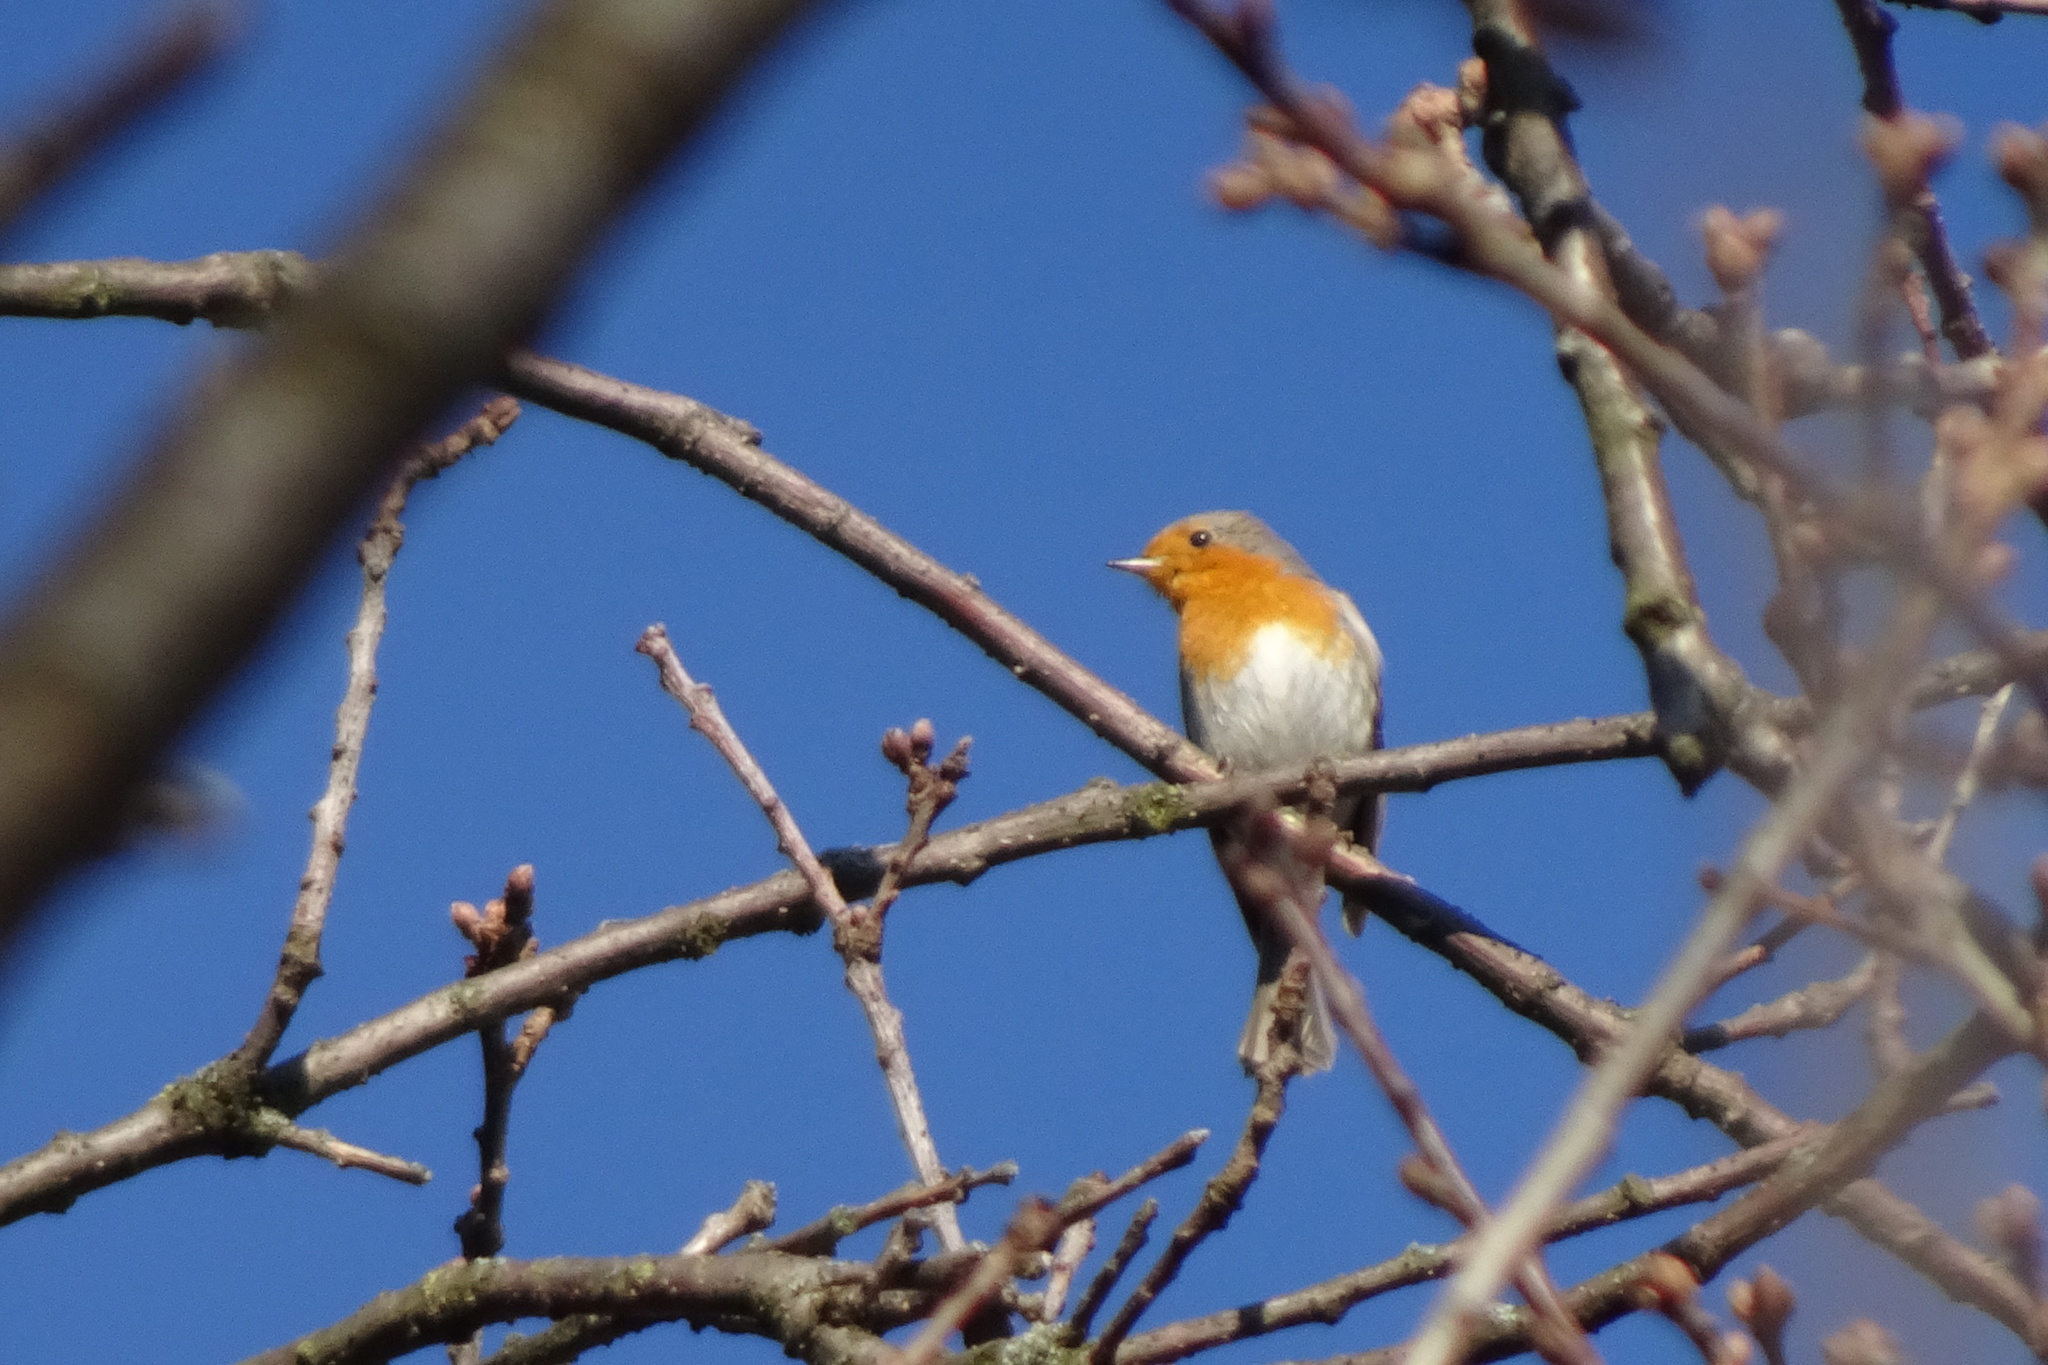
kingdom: Animalia
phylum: Chordata
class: Aves
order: Passeriformes
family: Muscicapidae
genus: Erithacus
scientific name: Erithacus rubecula
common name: European robin
